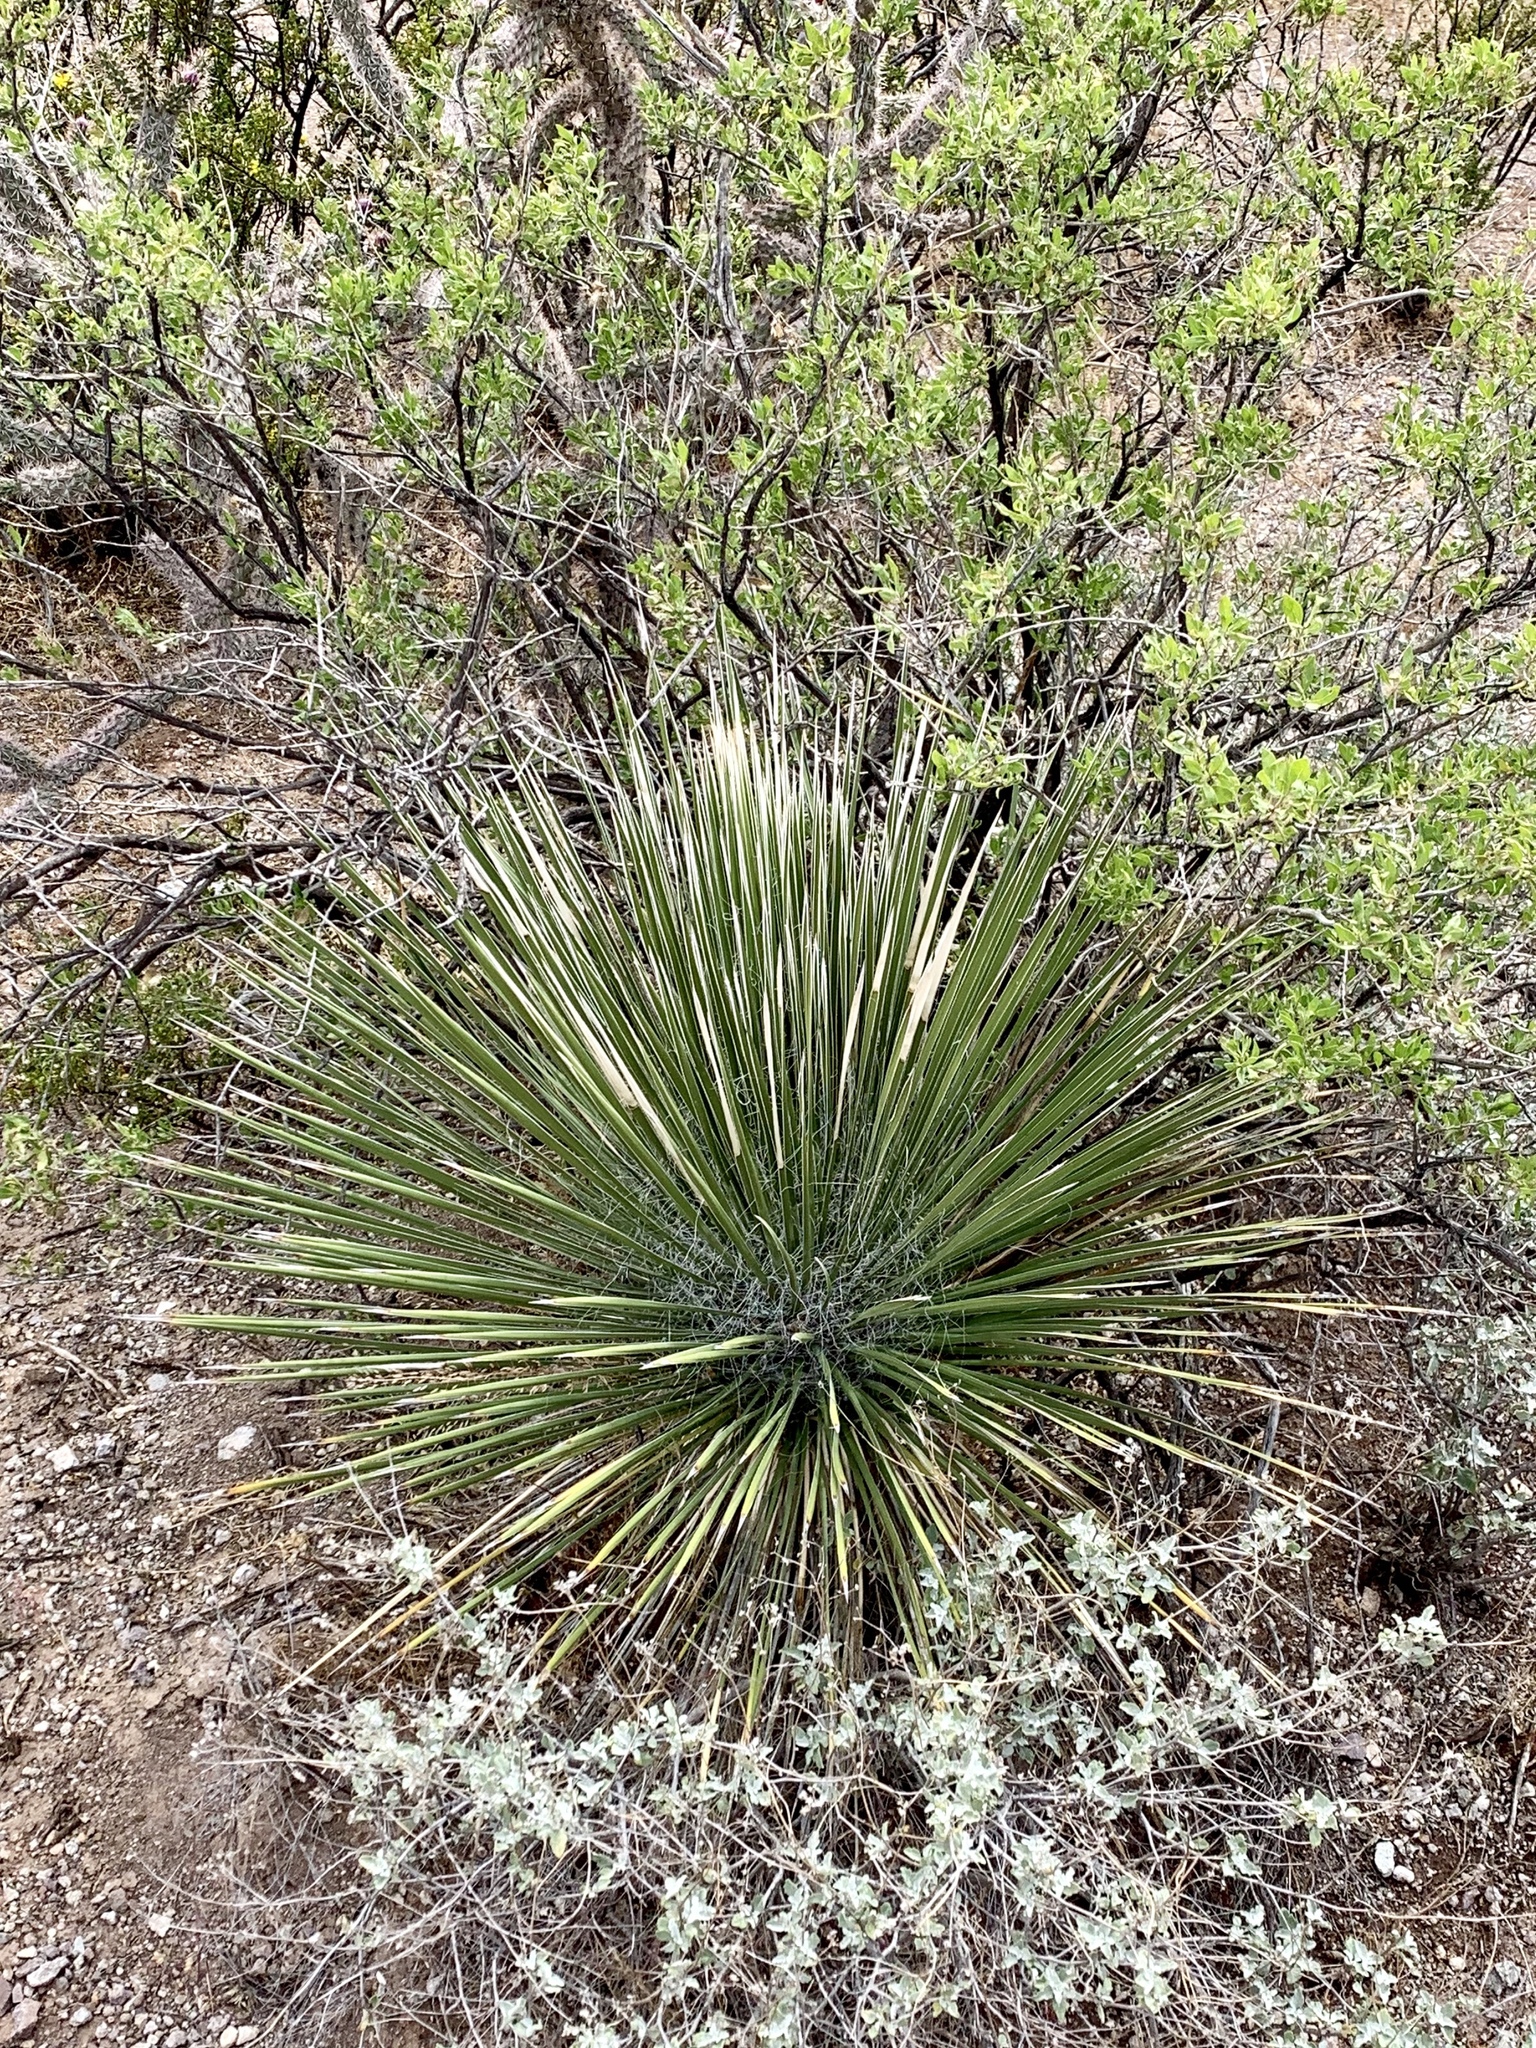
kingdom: Plantae
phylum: Tracheophyta
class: Liliopsida
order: Asparagales
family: Asparagaceae
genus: Yucca
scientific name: Yucca elata
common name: Palmella
